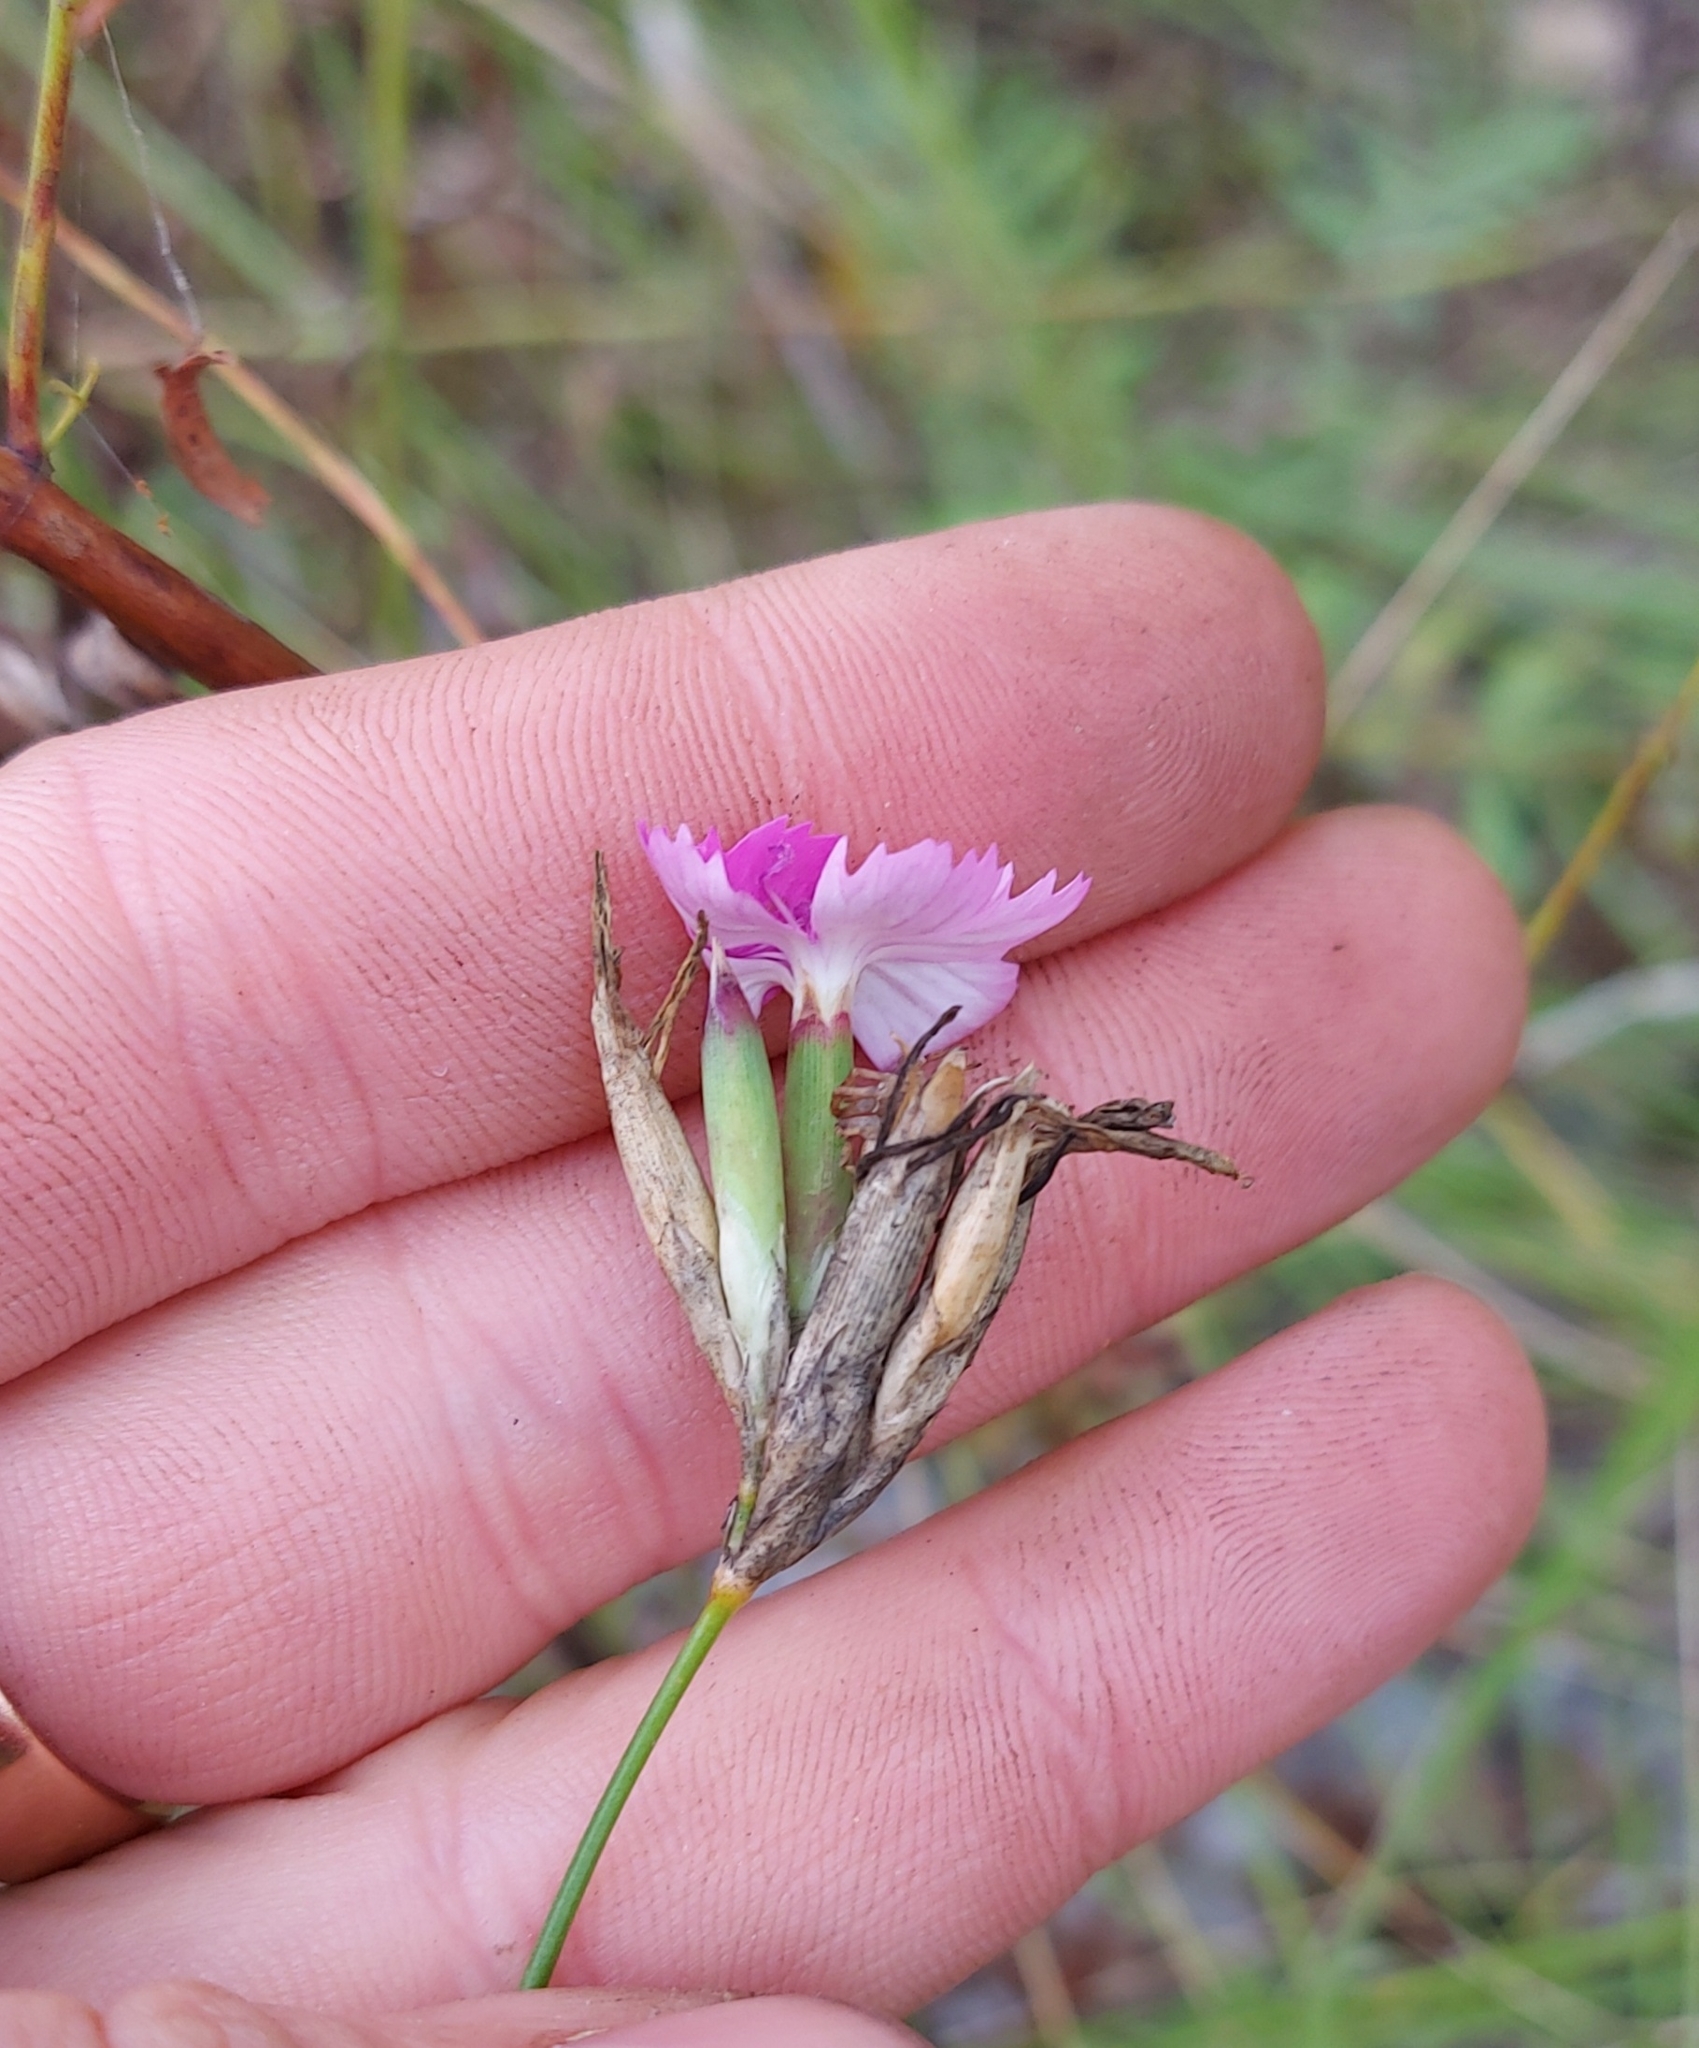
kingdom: Plantae
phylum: Tracheophyta
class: Magnoliopsida
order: Caryophyllales
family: Caryophyllaceae
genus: Dianthus
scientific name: Dianthus borbasii
